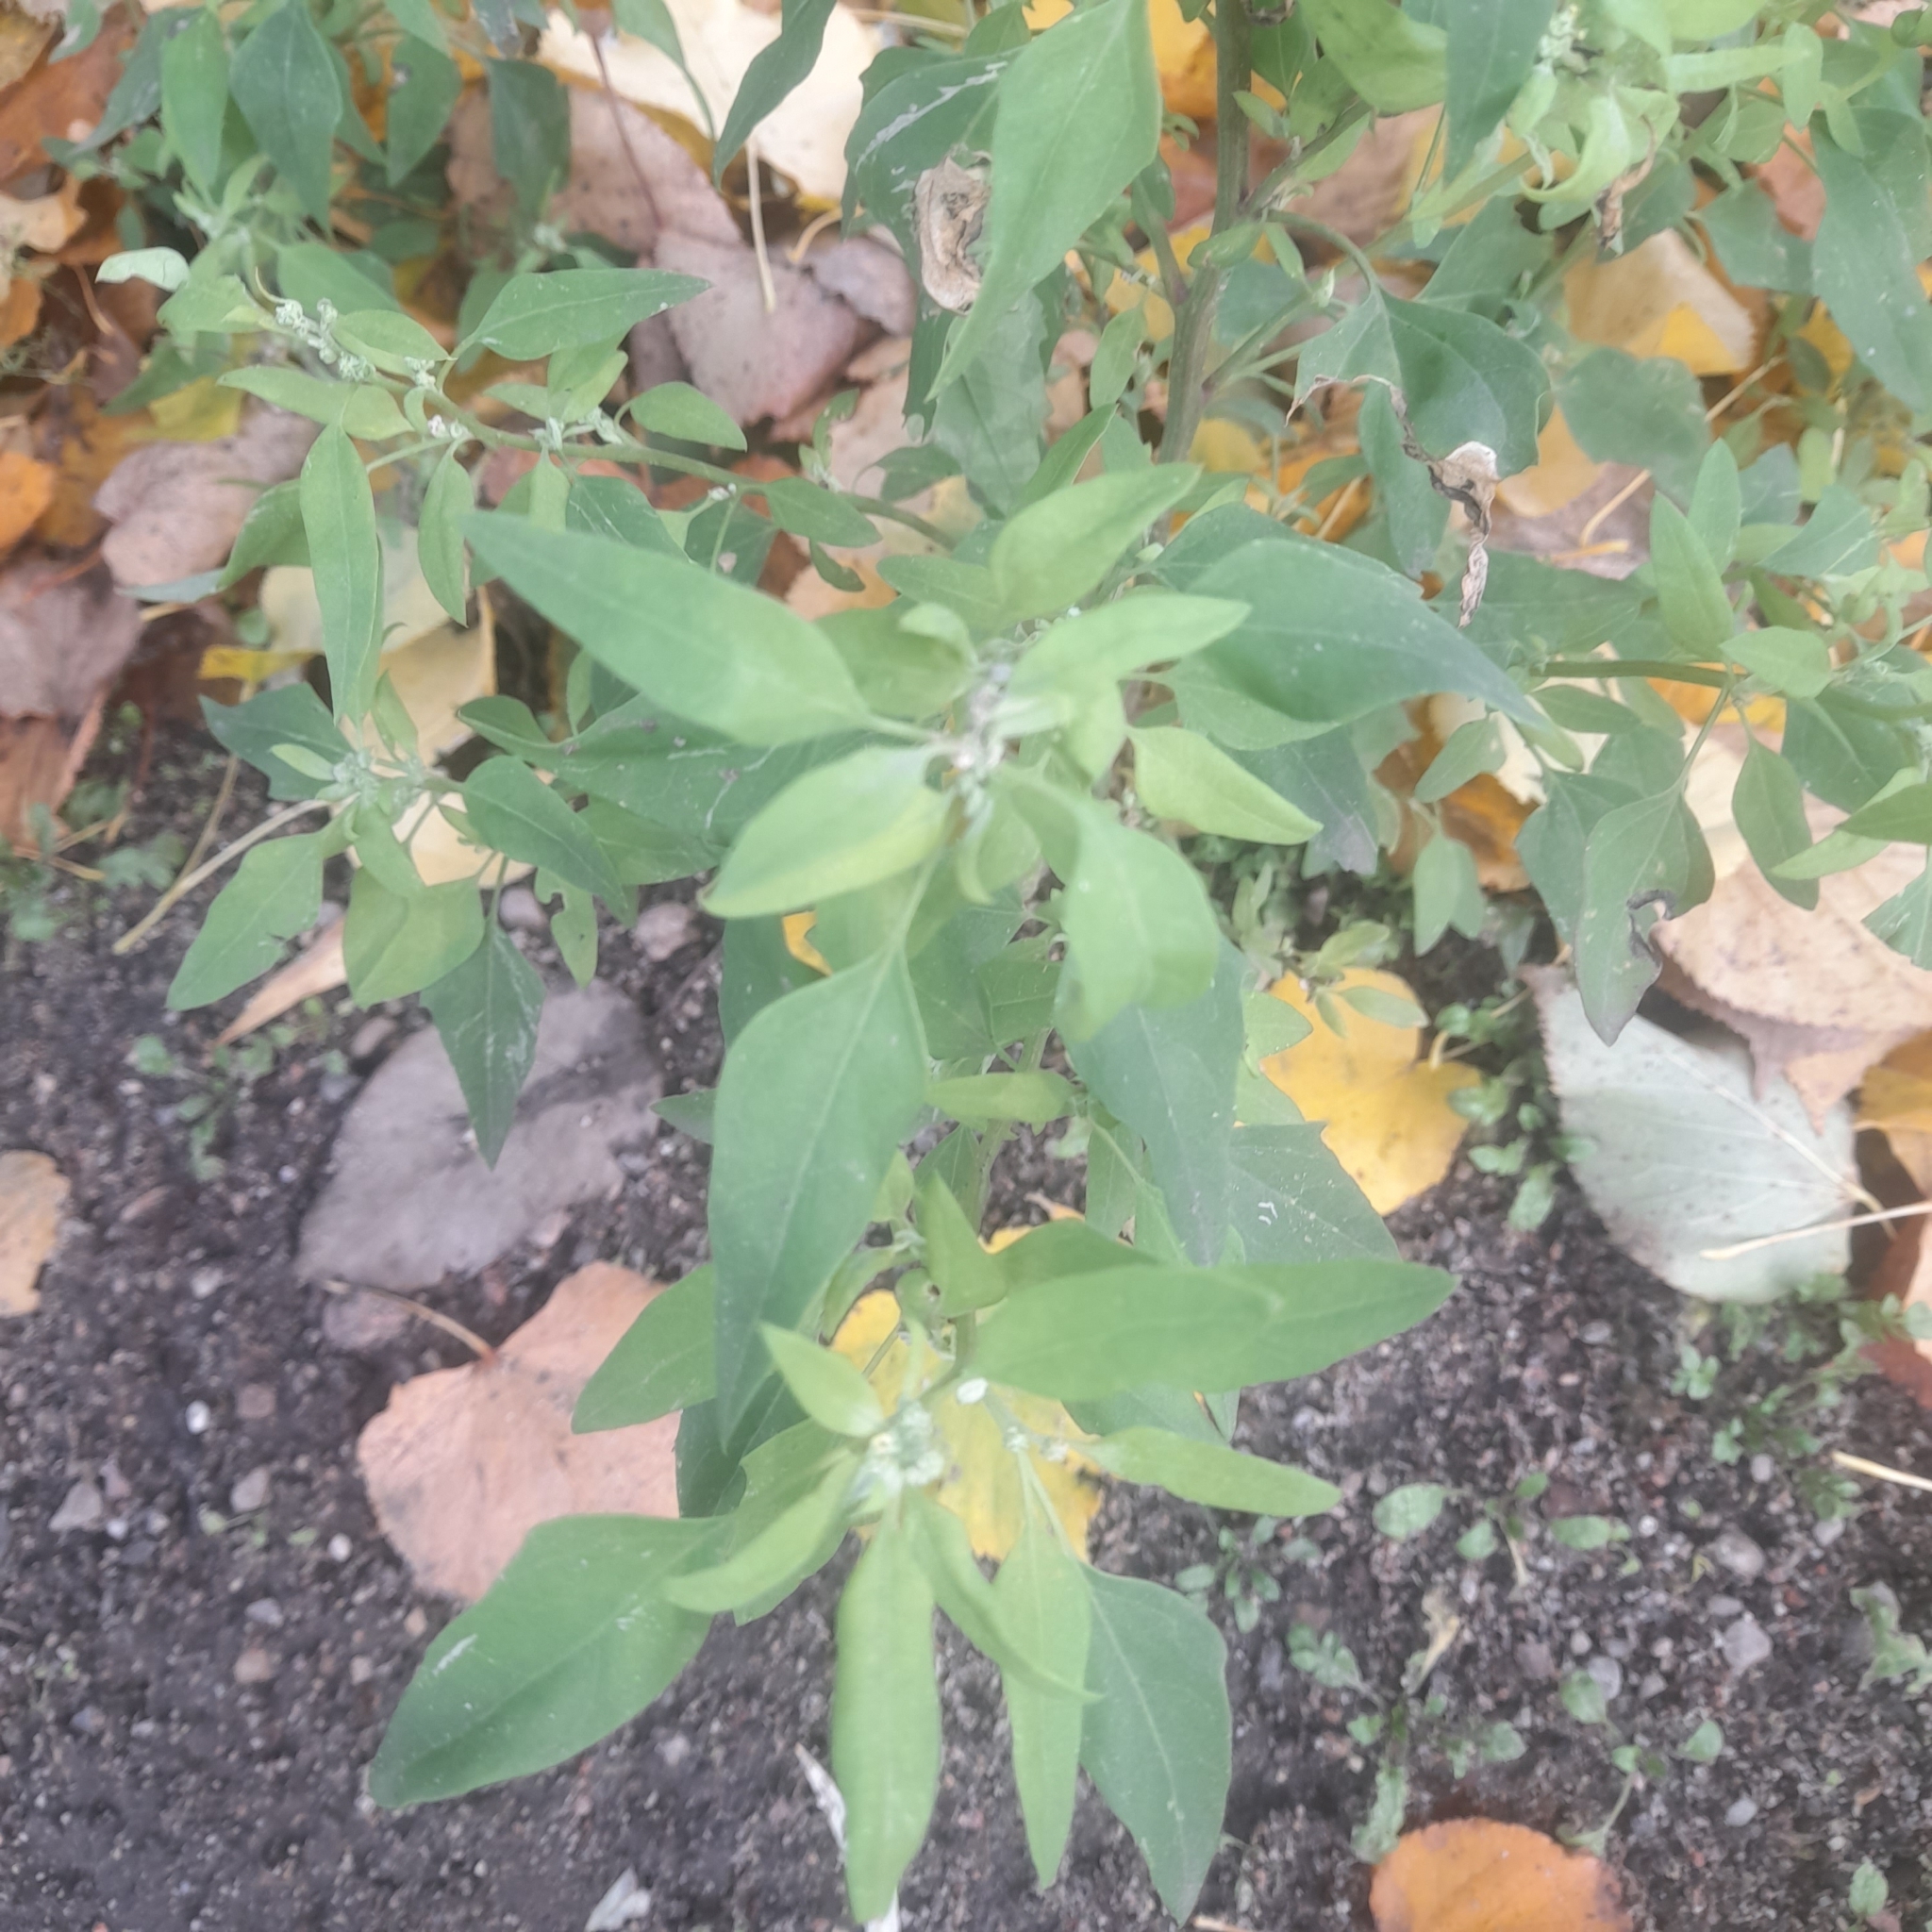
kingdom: Plantae
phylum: Tracheophyta
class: Magnoliopsida
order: Caryophyllales
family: Amaranthaceae
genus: Chenopodium
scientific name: Chenopodium album
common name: Fat-hen
